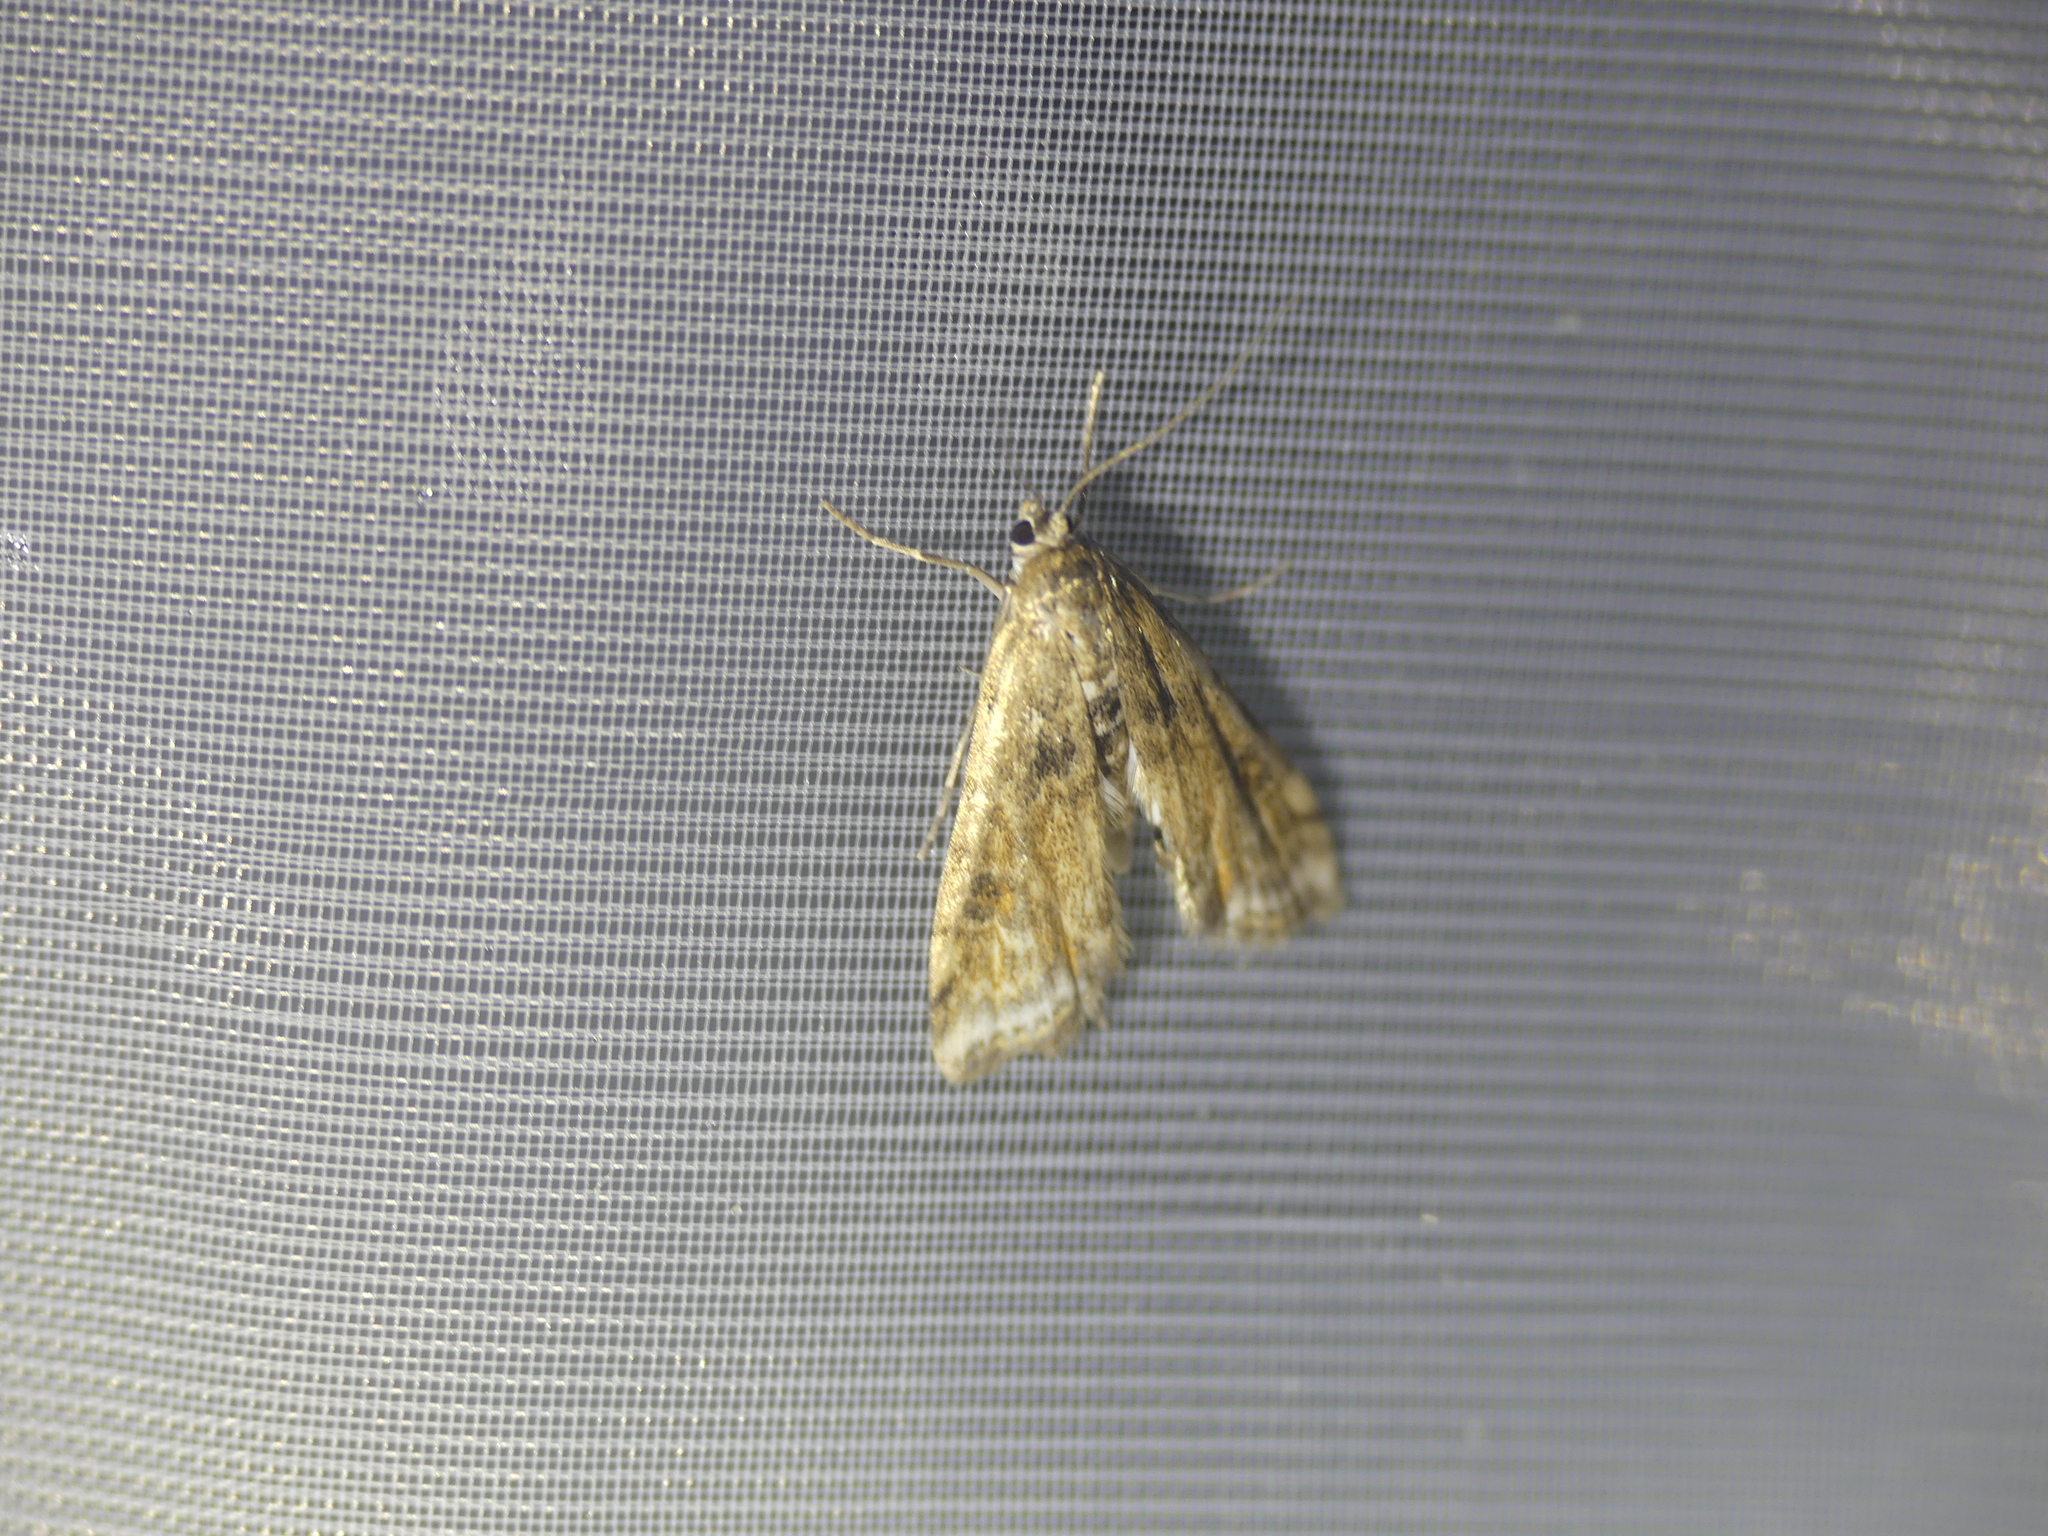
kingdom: Animalia
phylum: Arthropoda
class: Insecta
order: Lepidoptera
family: Crambidae
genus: Cataclysta
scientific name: Cataclysta lemnata
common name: Small china-mark
